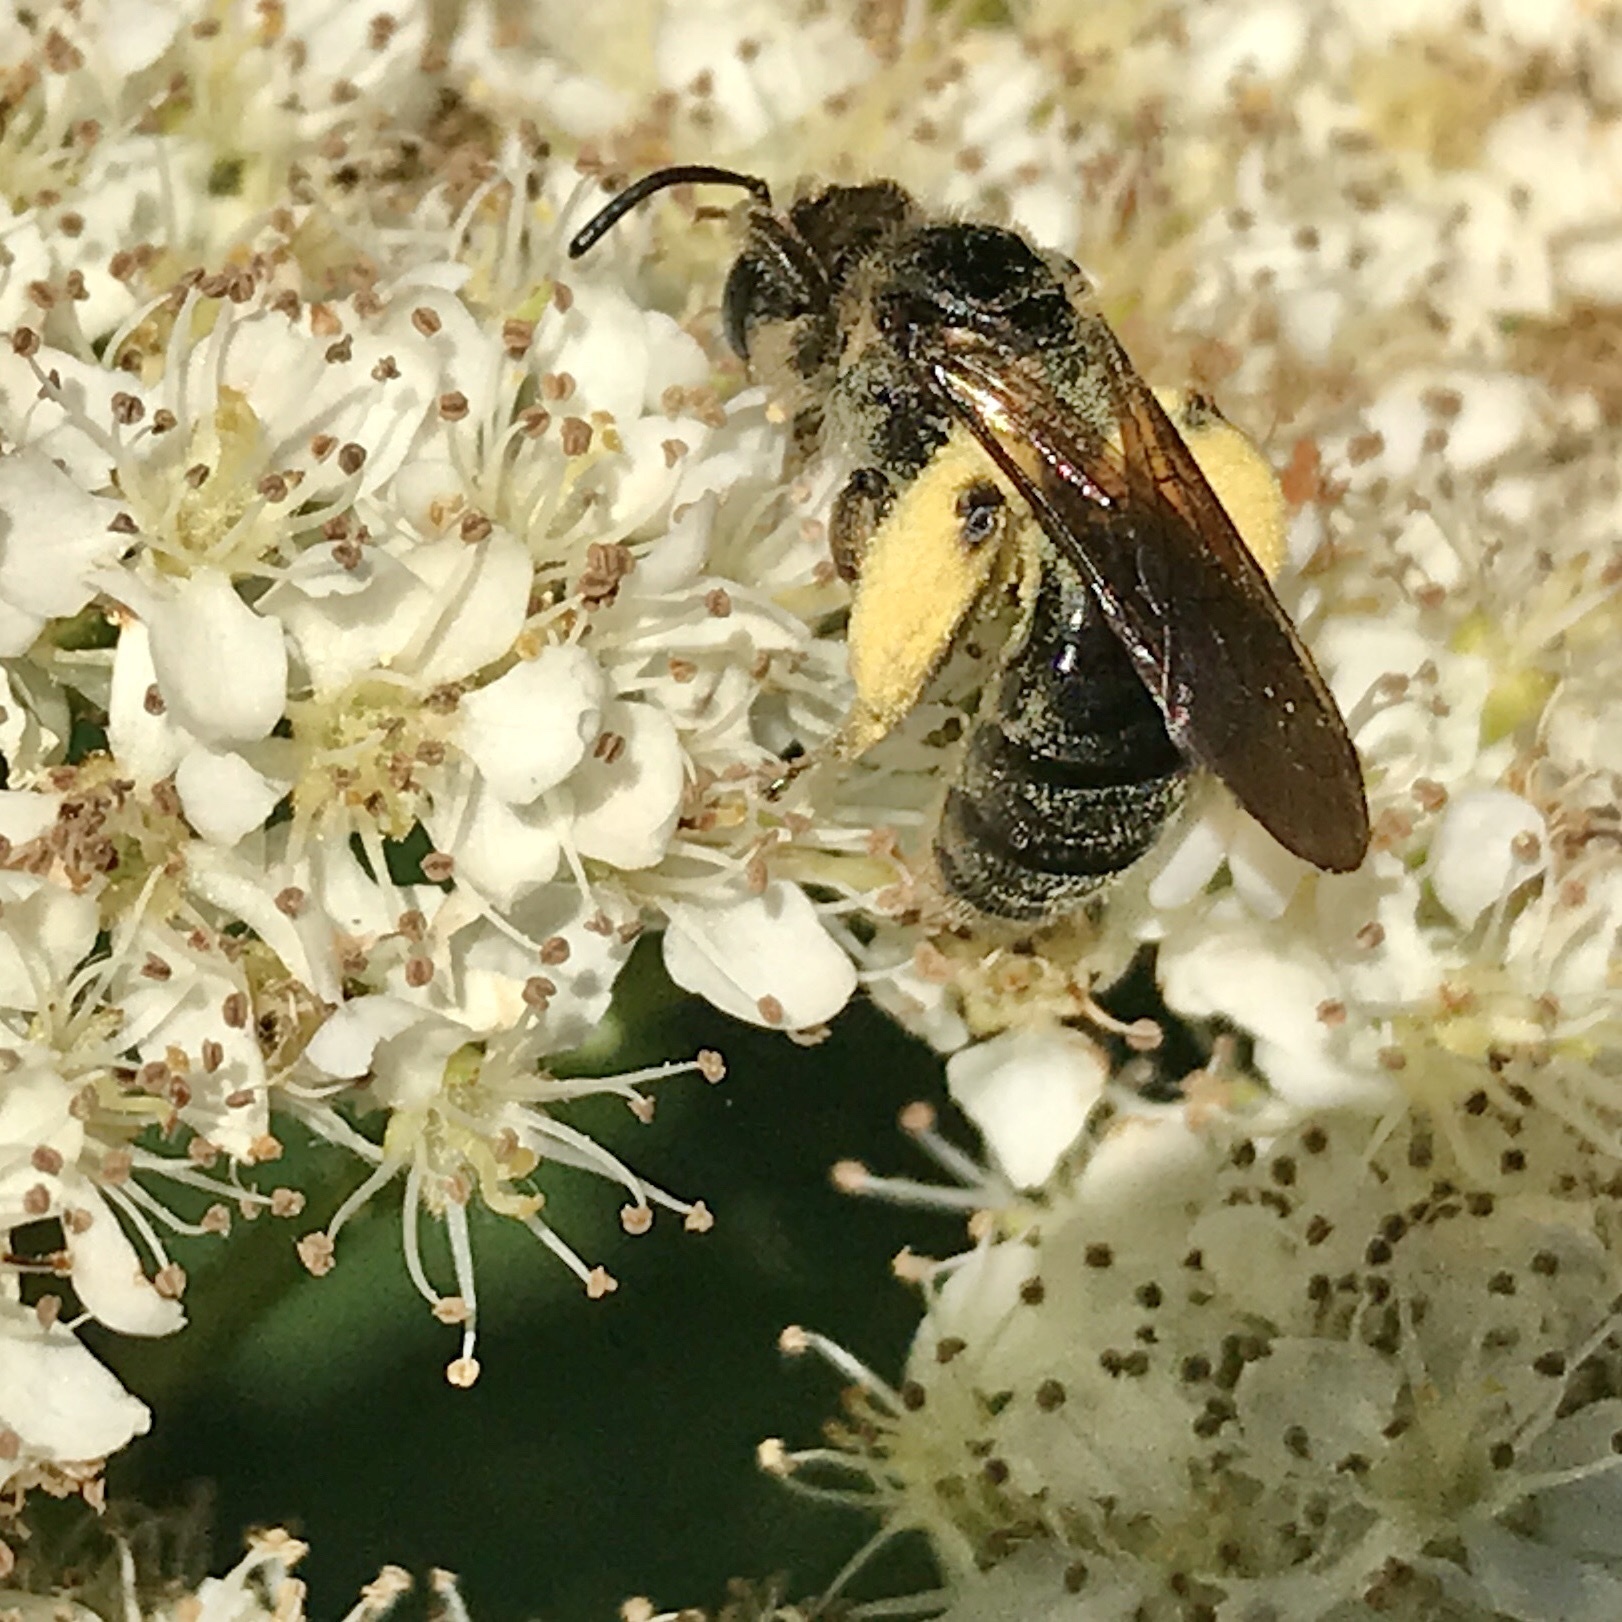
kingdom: Animalia
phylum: Arthropoda
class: Insecta
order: Hymenoptera
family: Andrenidae
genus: Andrena
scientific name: Andrena crataegi
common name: Hawthorn mining bee
